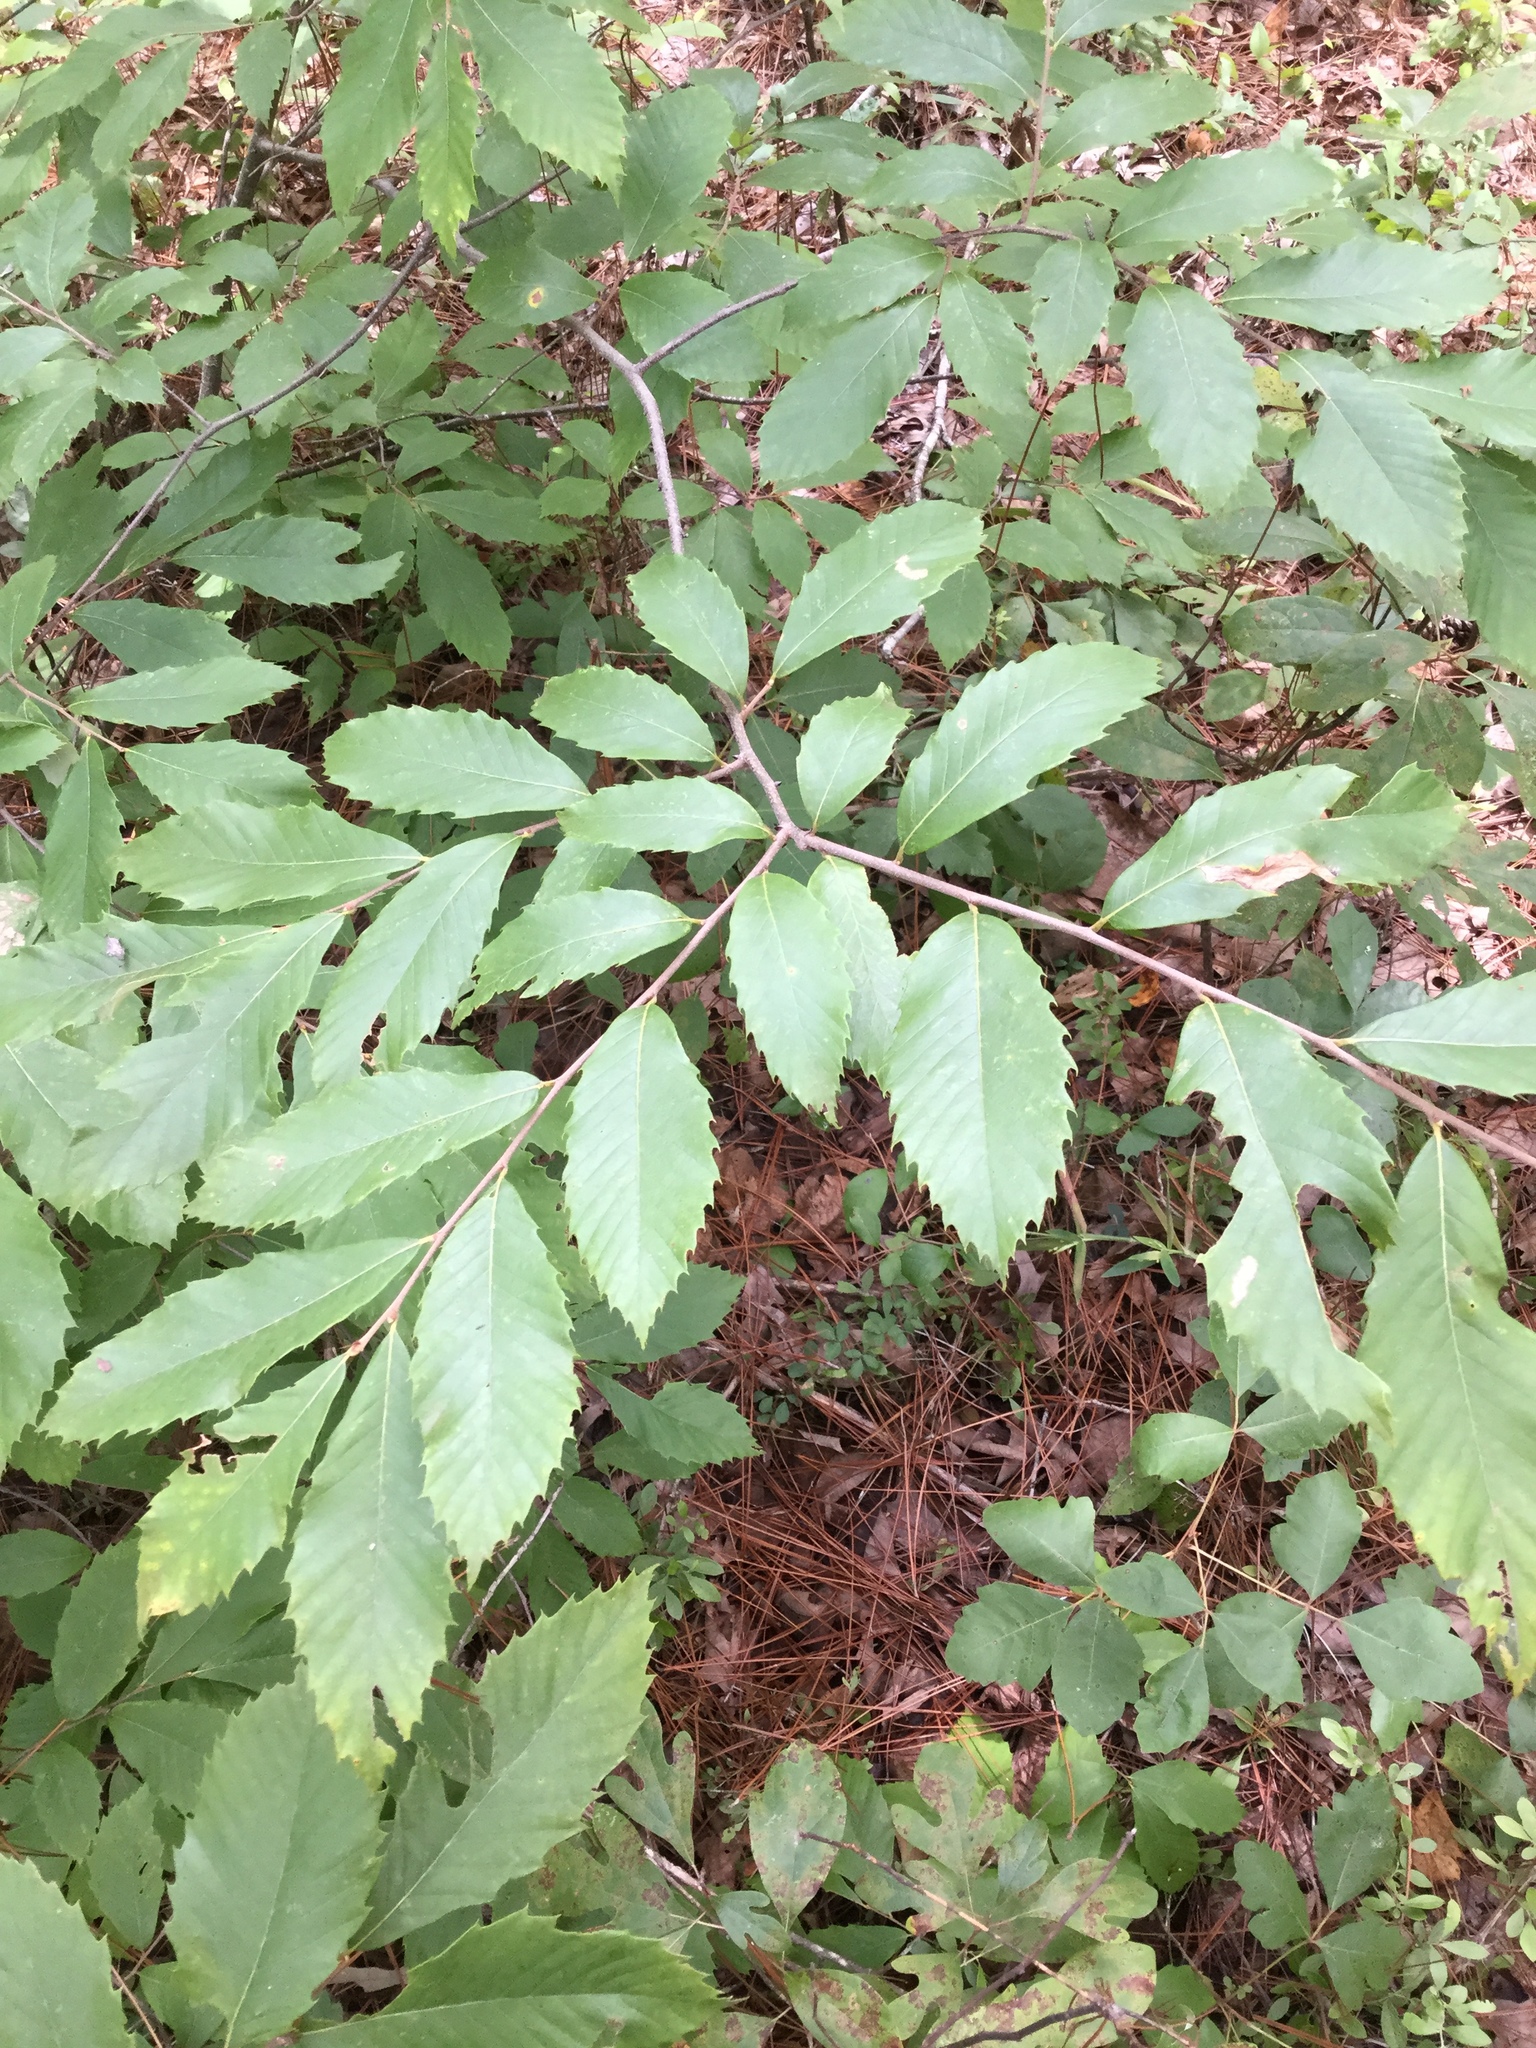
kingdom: Plantae
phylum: Tracheophyta
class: Magnoliopsida
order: Fagales
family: Fagaceae
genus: Castanea
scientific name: Castanea pumila
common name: Chinkapin
